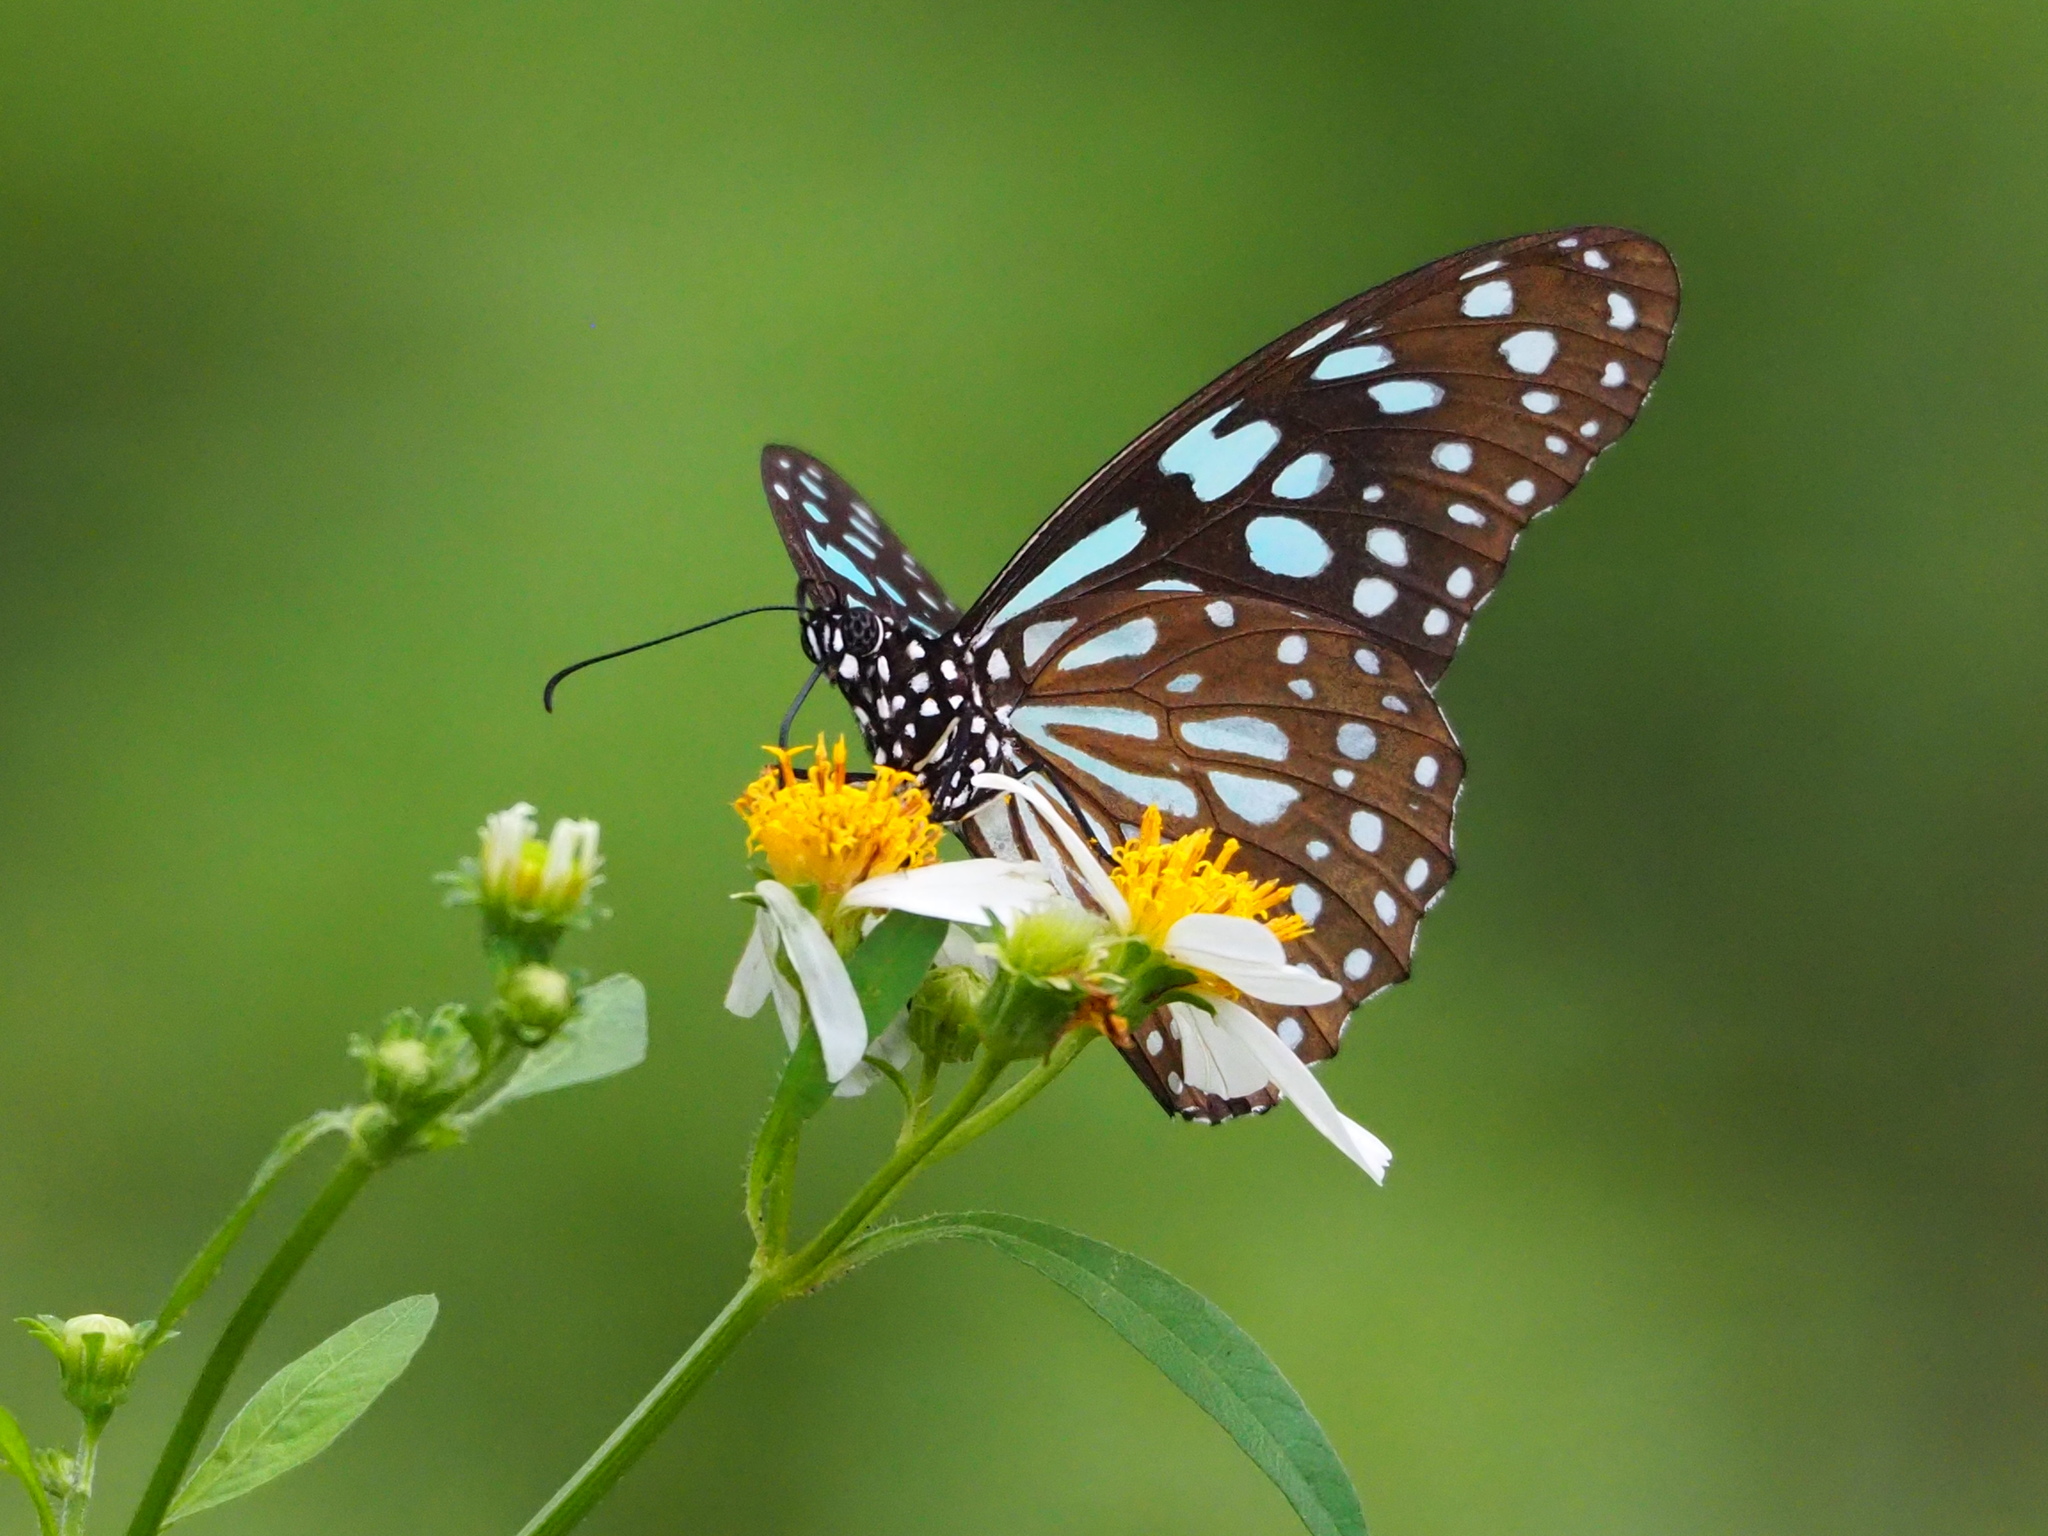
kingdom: Animalia
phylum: Arthropoda
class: Insecta
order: Lepidoptera
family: Nymphalidae
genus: Tirumala
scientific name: Tirumala limniace
